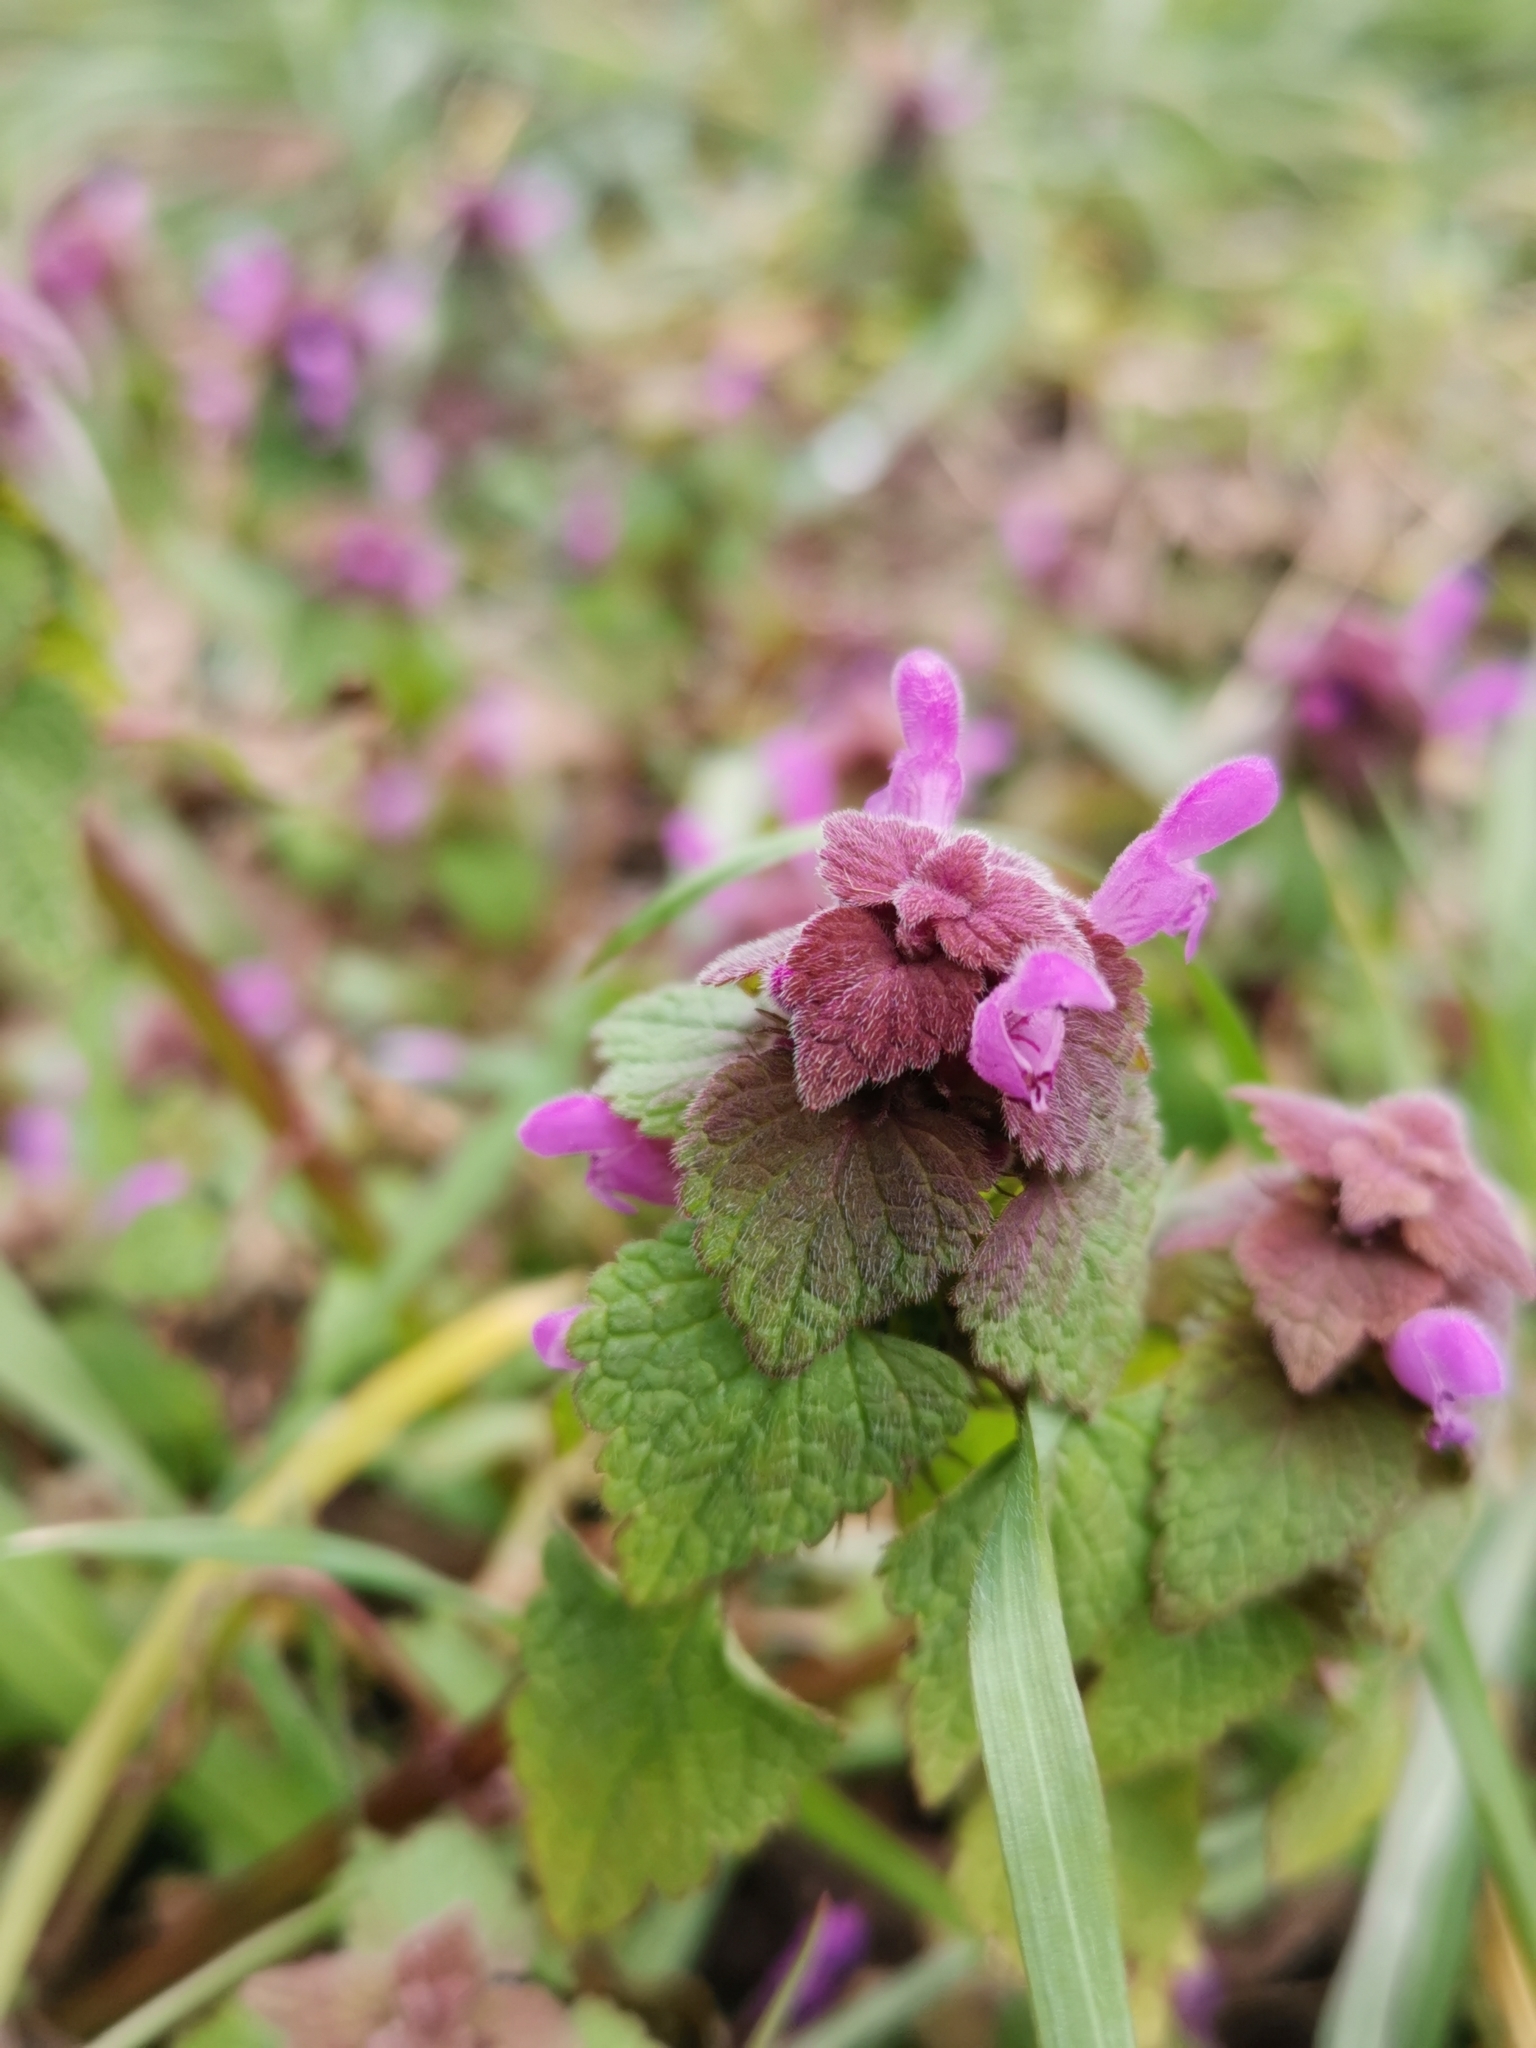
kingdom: Plantae
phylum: Tracheophyta
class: Magnoliopsida
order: Lamiales
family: Lamiaceae
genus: Lamium
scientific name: Lamium purpureum
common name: Red dead-nettle
